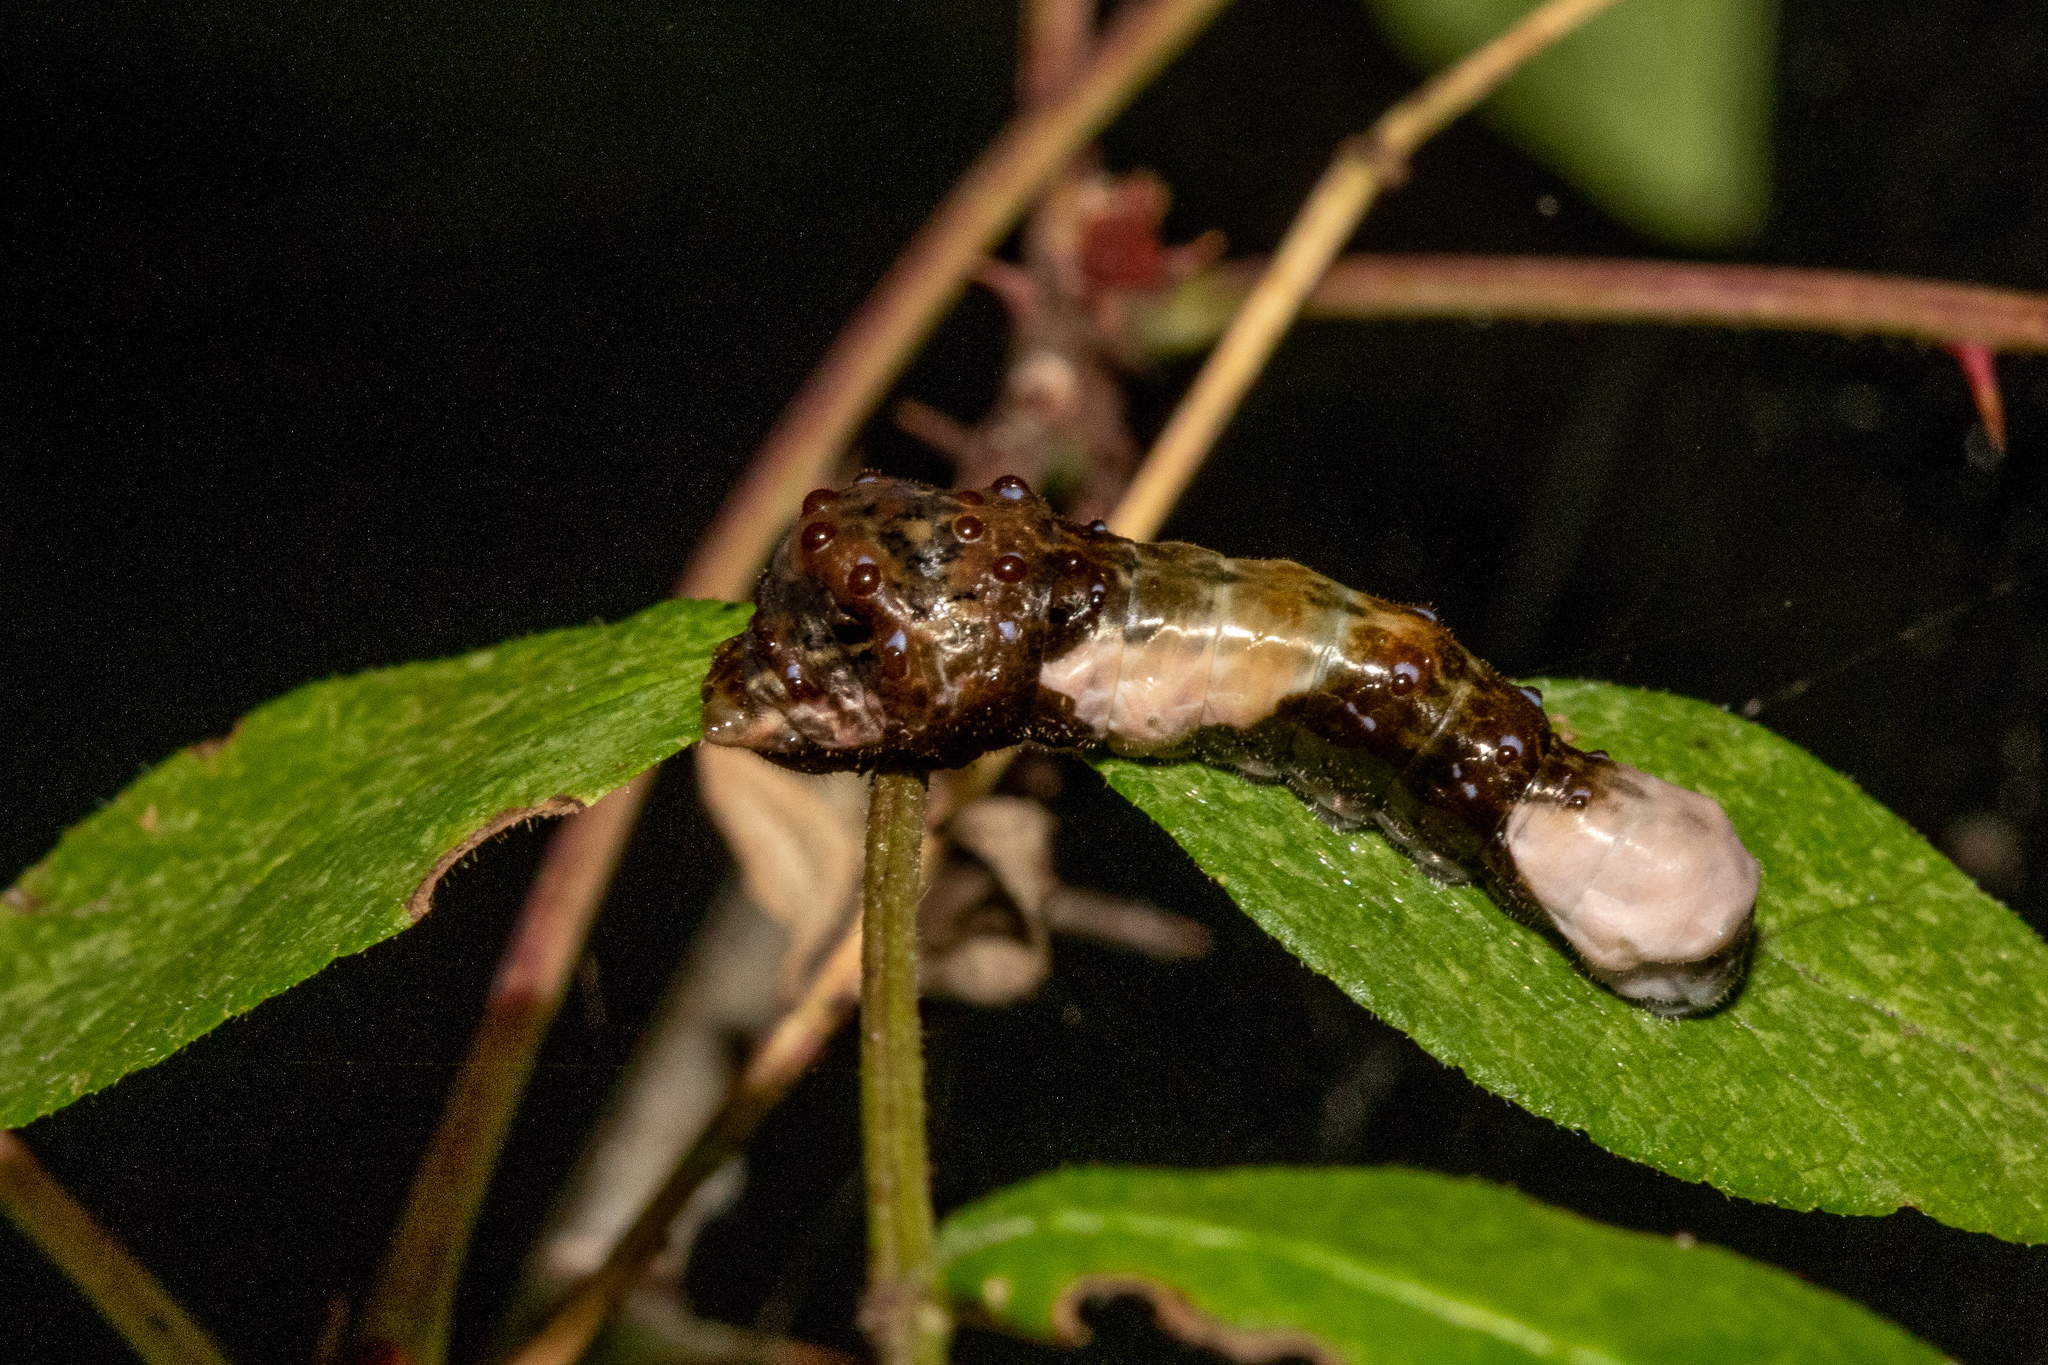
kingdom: Animalia
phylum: Arthropoda
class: Insecta
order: Lepidoptera
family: Papilionidae
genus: Papilio
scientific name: Papilio cresphontes
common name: Giant swallowtail
